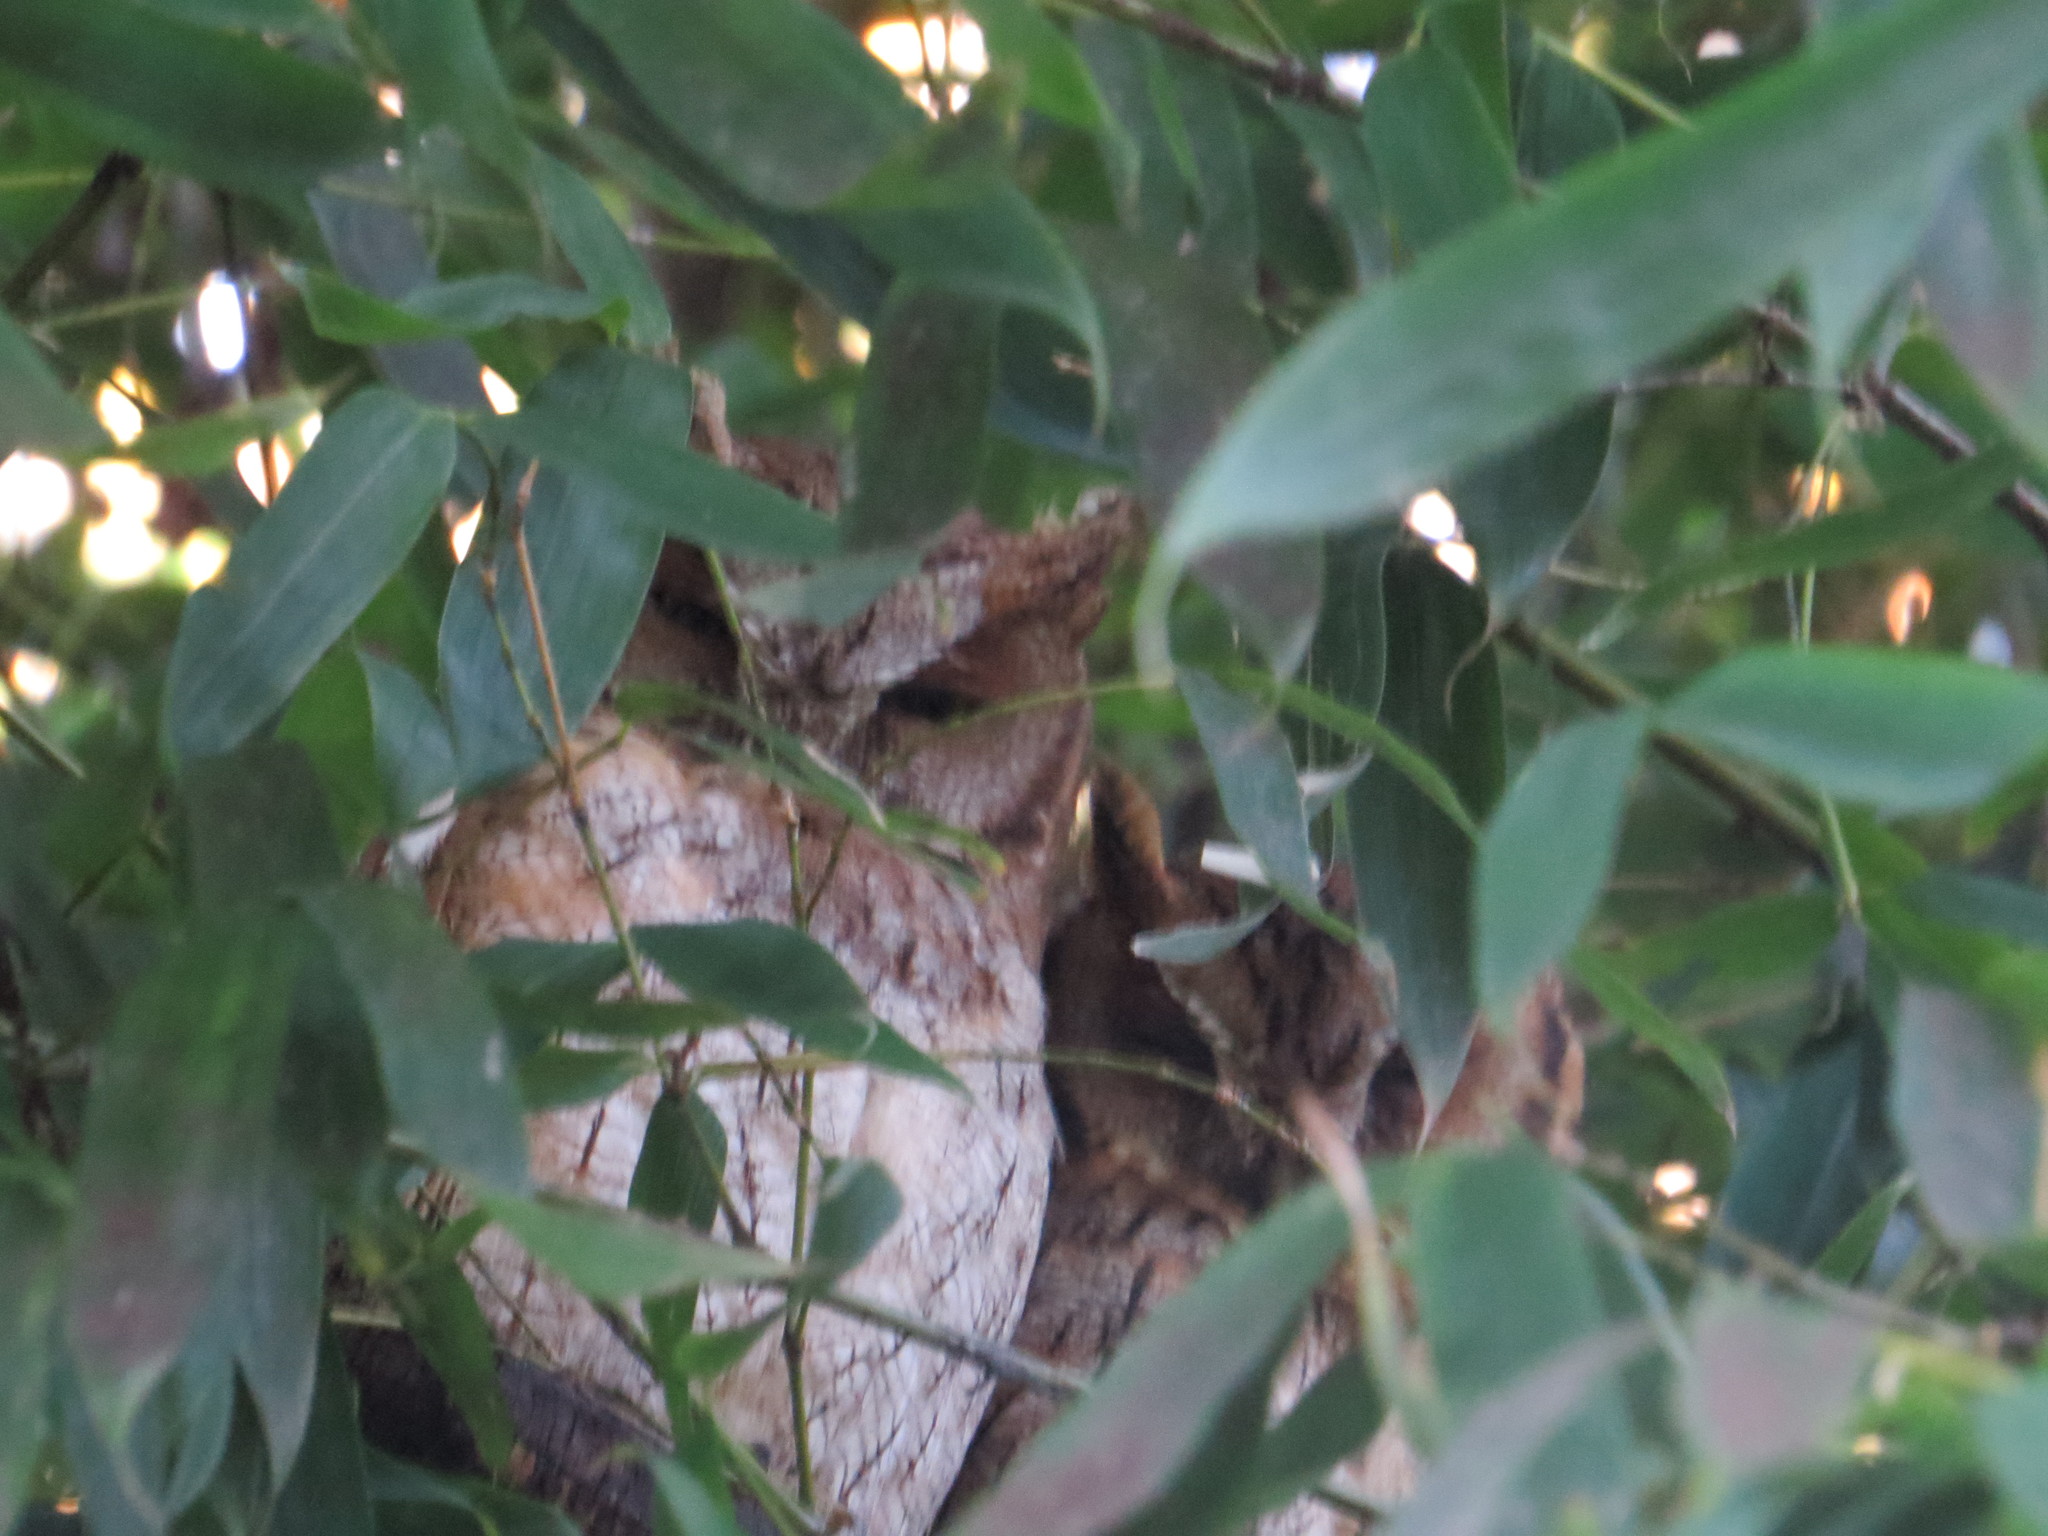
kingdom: Animalia
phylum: Chordata
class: Aves
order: Strigiformes
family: Strigidae
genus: Megascops
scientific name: Megascops choliba
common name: Tropical screech-owl
